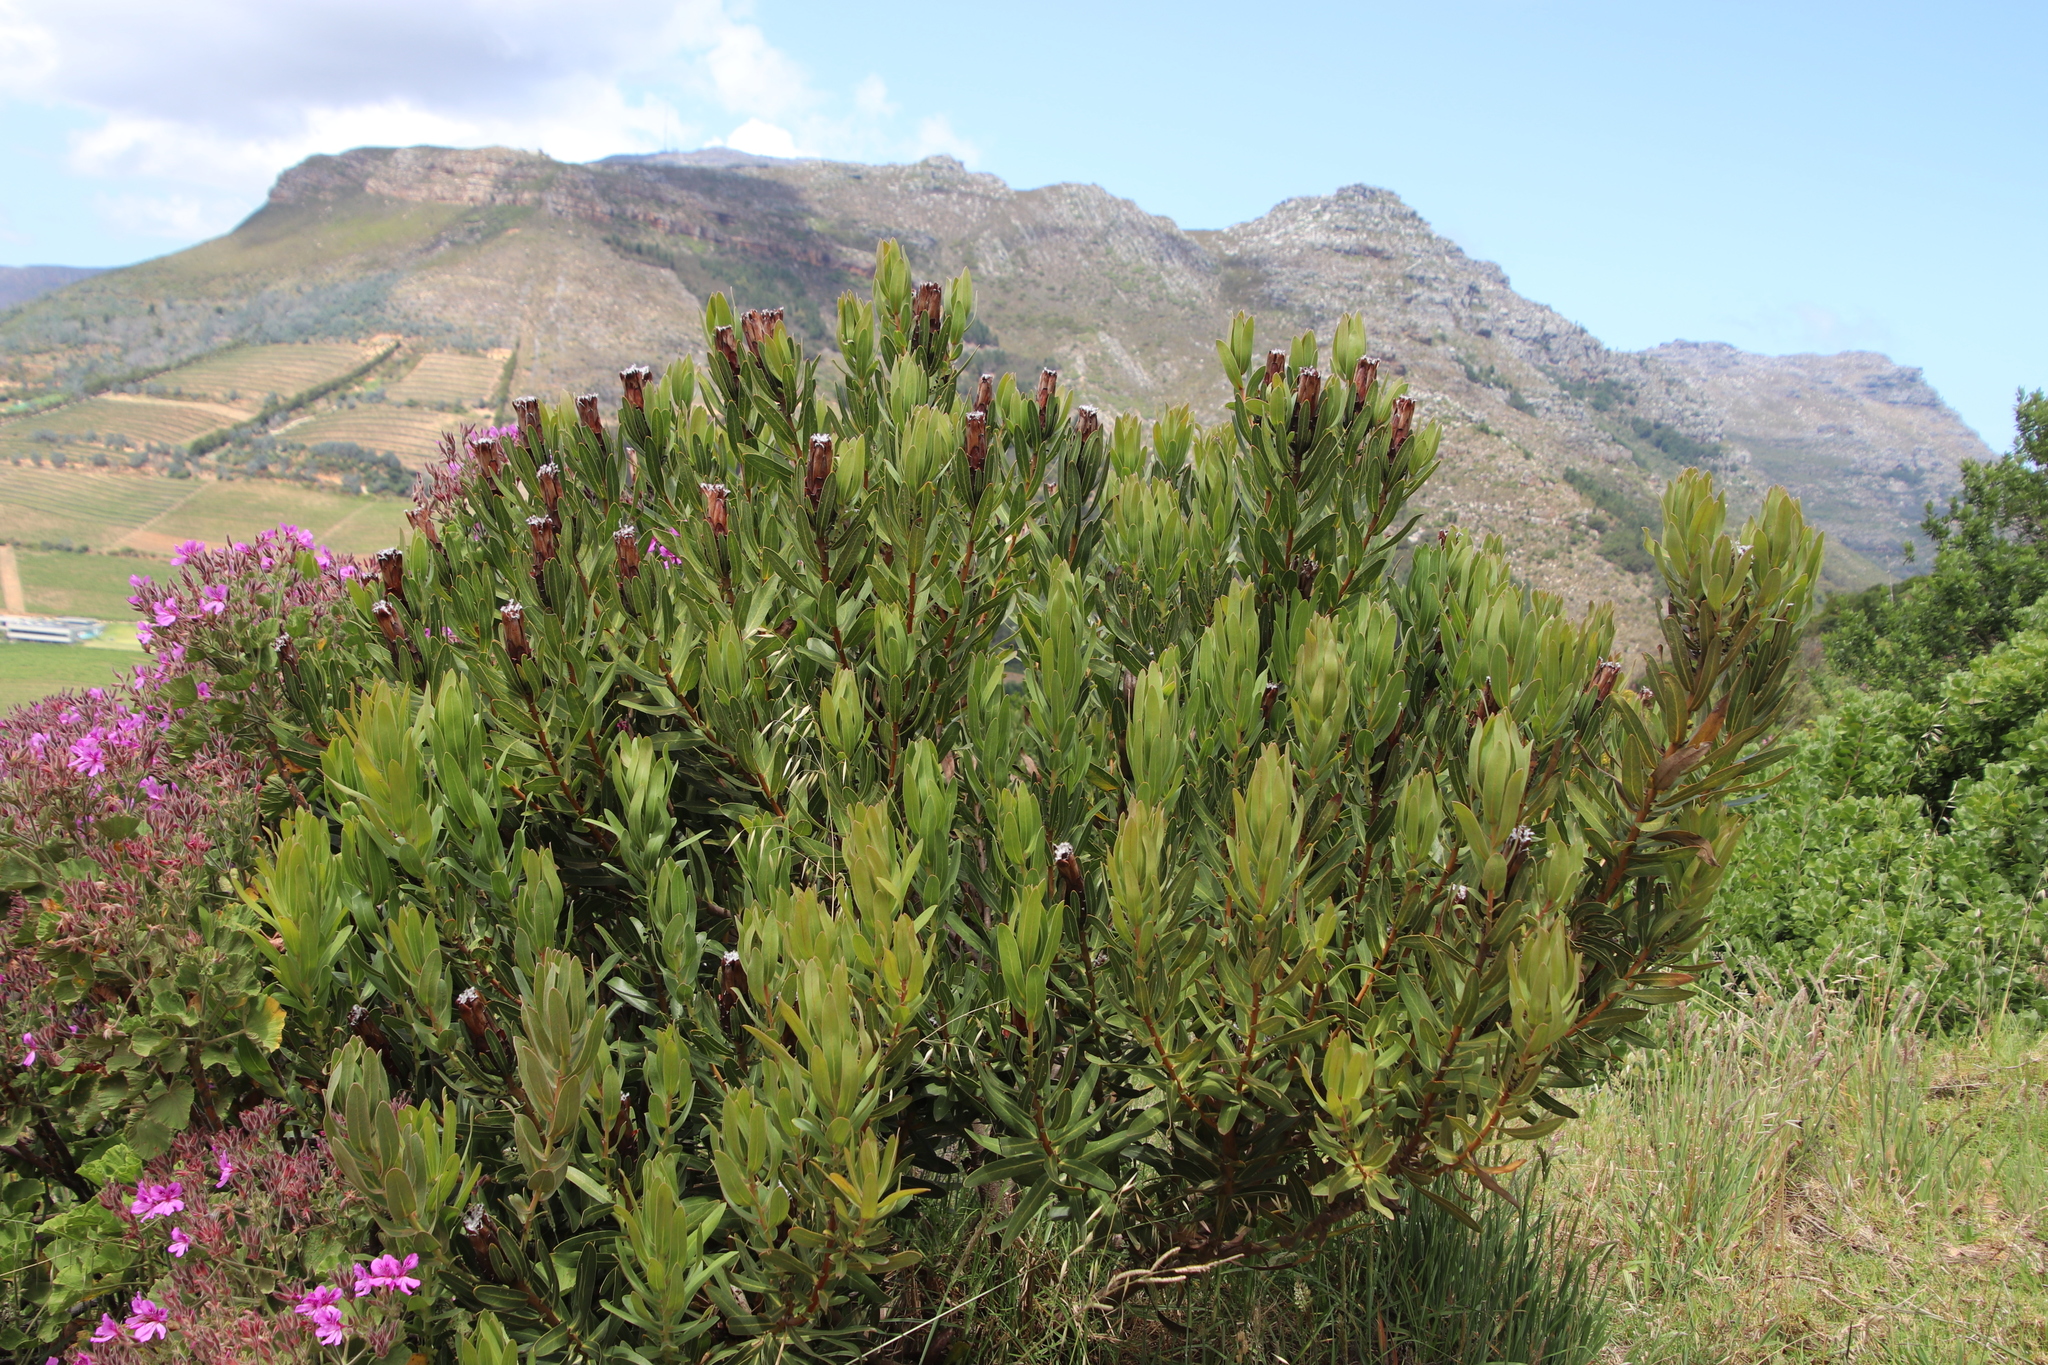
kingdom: Plantae
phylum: Tracheophyta
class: Magnoliopsida
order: Proteales
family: Proteaceae
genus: Protea
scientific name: Protea lepidocarpodendron
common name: Black-bearded protea
